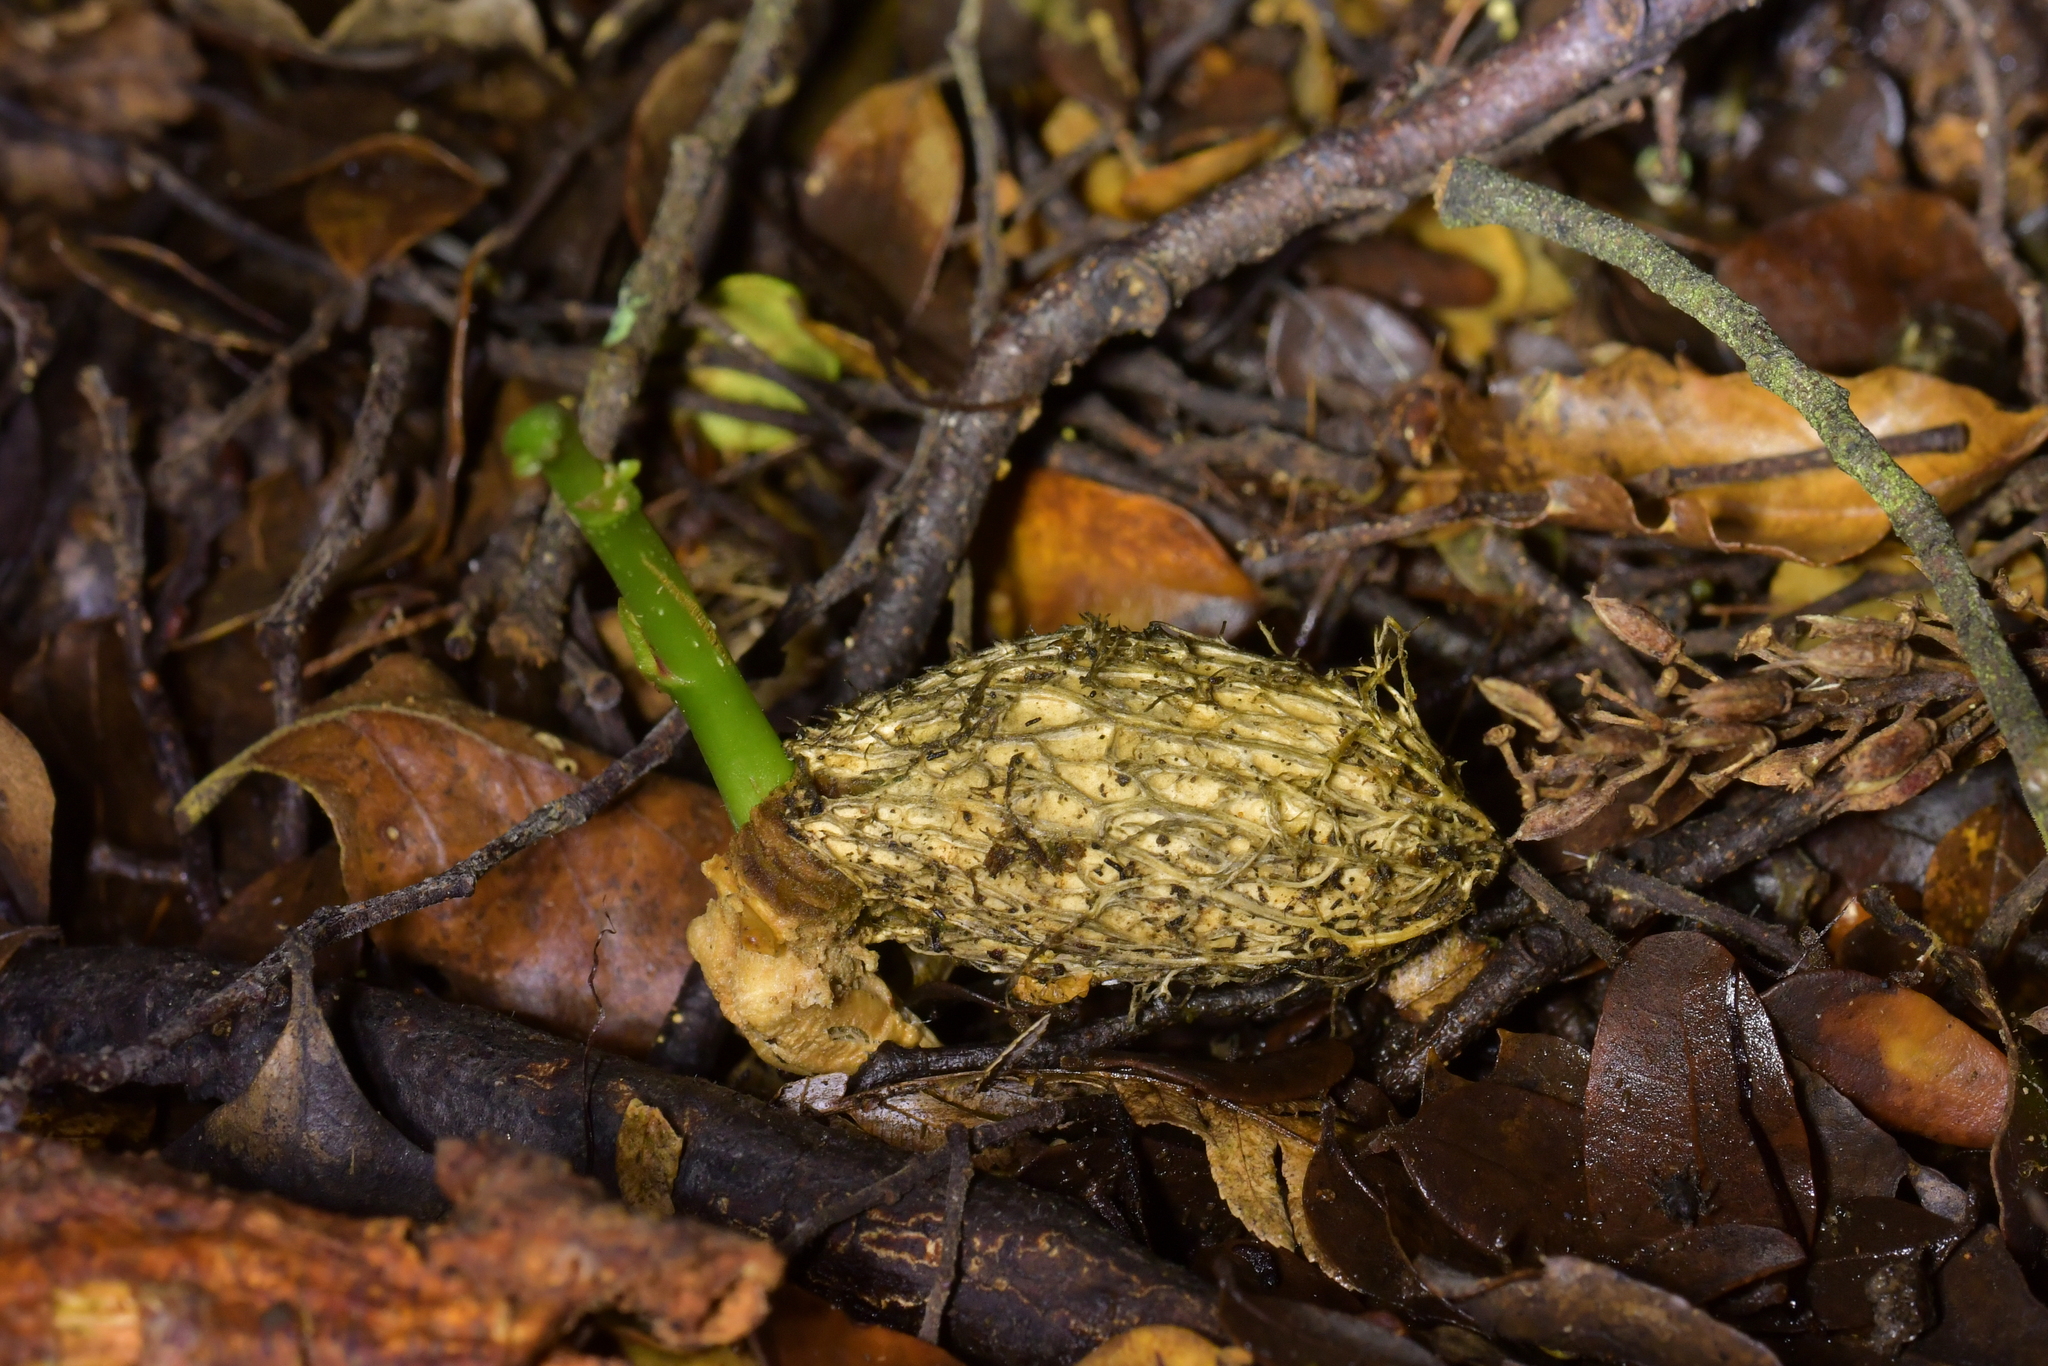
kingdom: Plantae
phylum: Tracheophyta
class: Magnoliopsida
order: Cucurbitales
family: Corynocarpaceae
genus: Corynocarpus
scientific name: Corynocarpus laevigatus
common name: New zealand laurel
